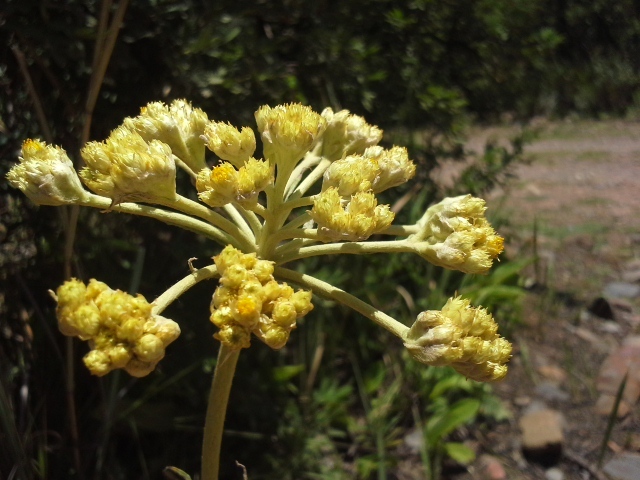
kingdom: Plantae
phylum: Tracheophyta
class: Magnoliopsida
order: Asterales
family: Asteraceae
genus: Helichrysum
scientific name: Helichrysum nudifolium
